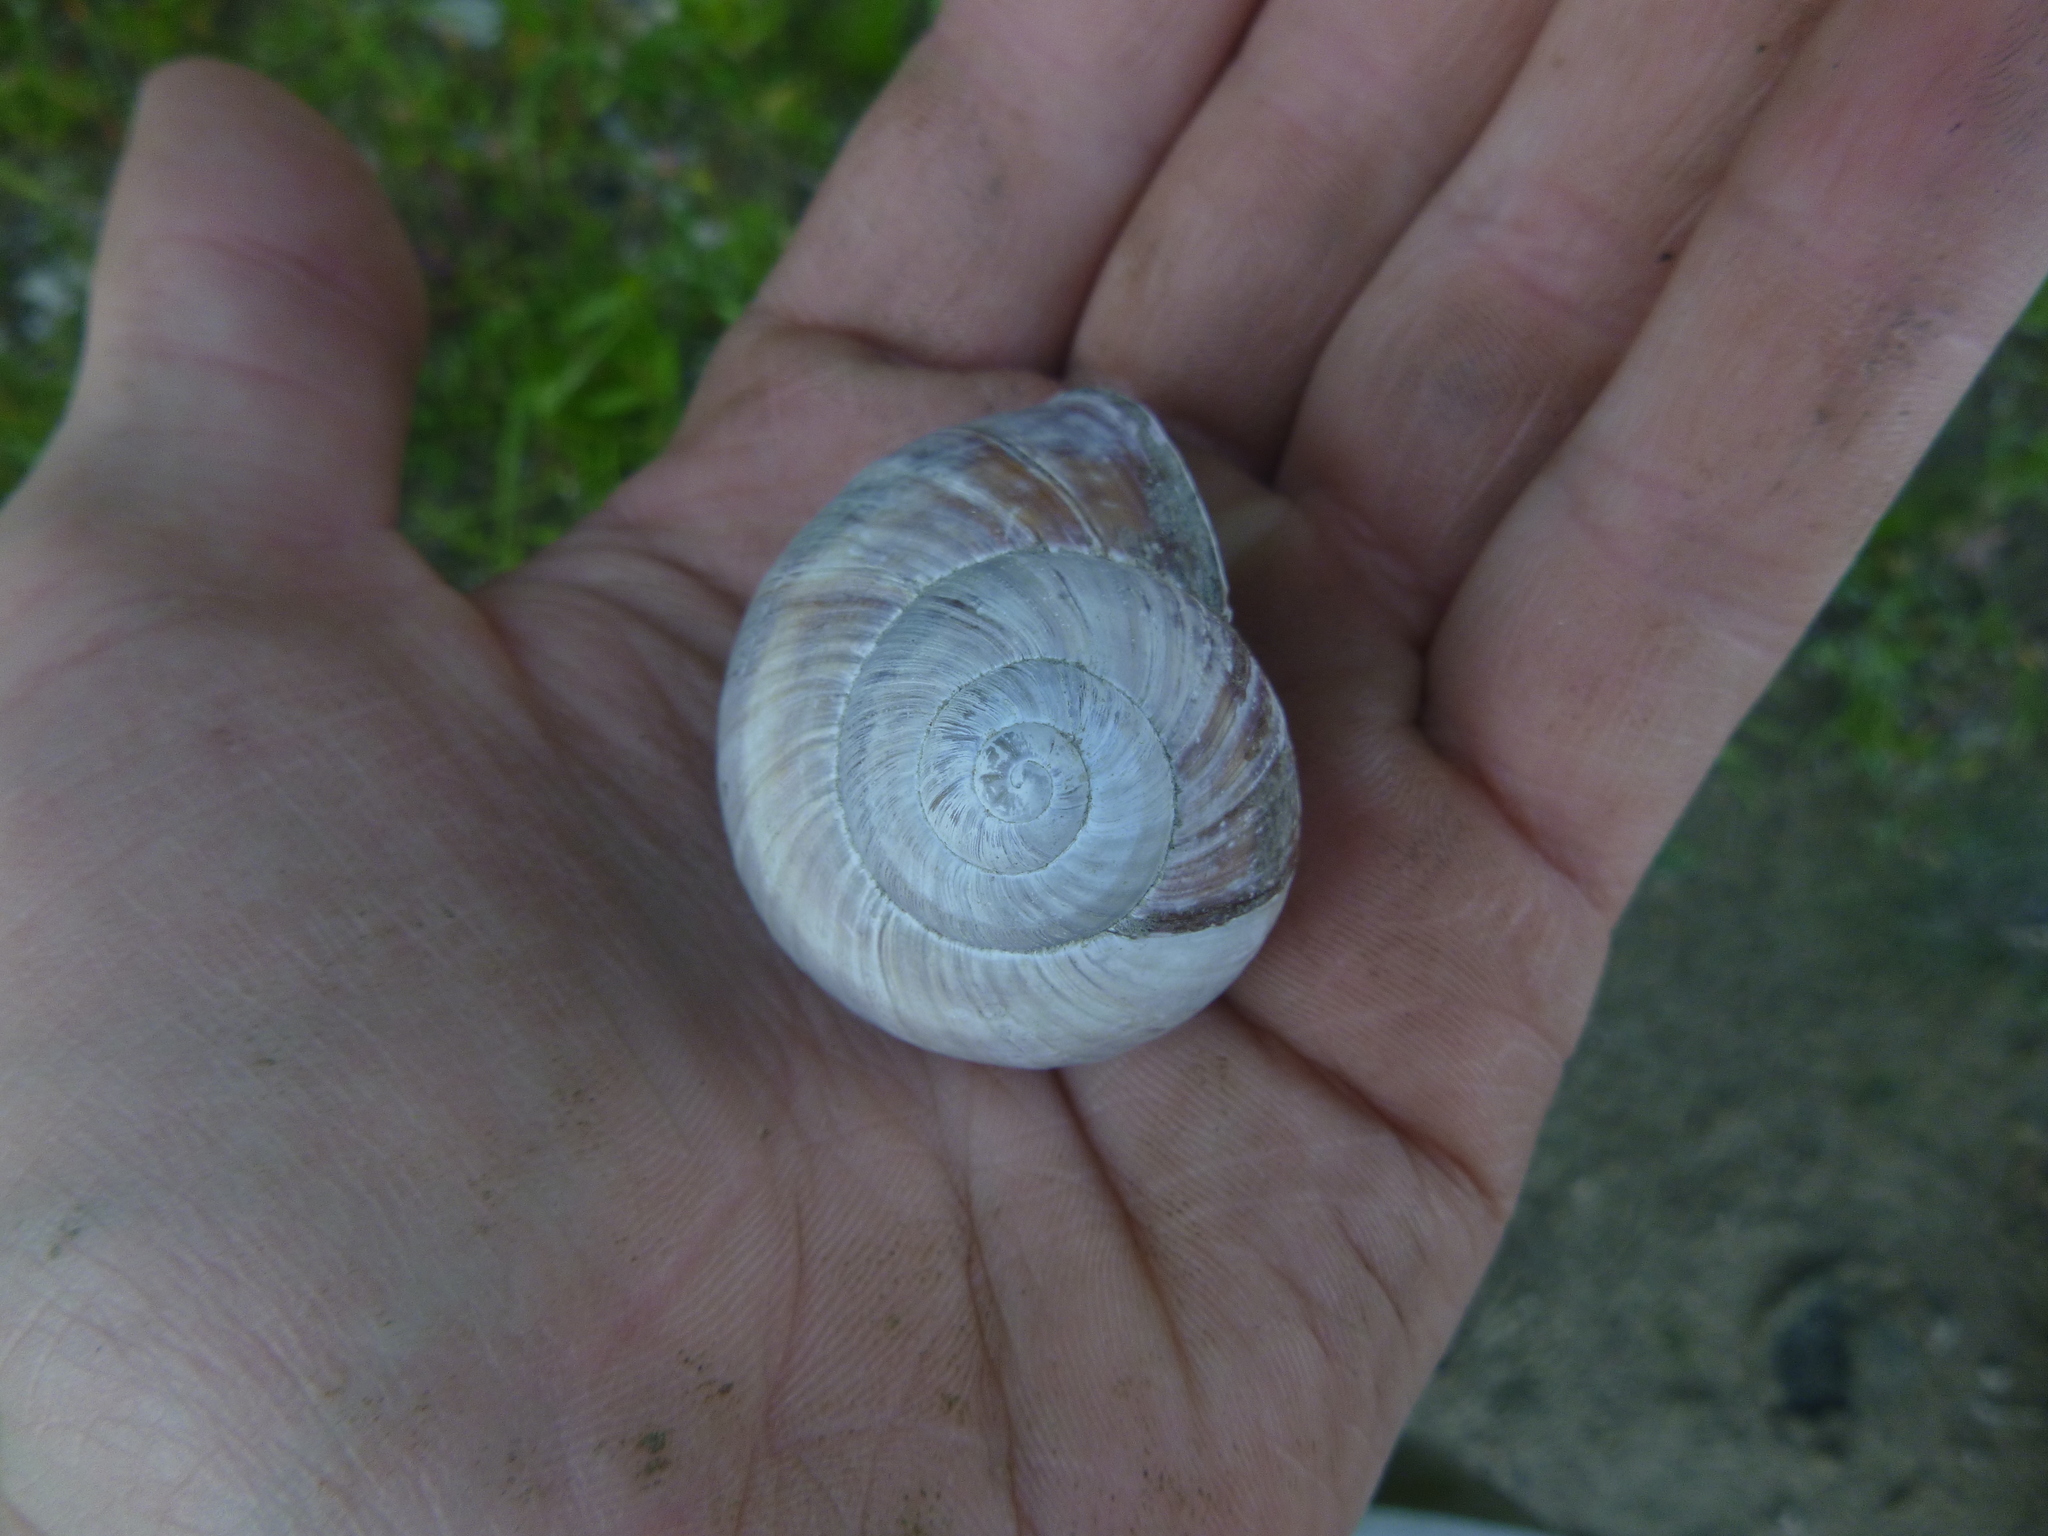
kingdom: Animalia
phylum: Mollusca
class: Gastropoda
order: Stylommatophora
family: Helicidae
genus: Helix
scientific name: Helix pomatia
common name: Roman snail
